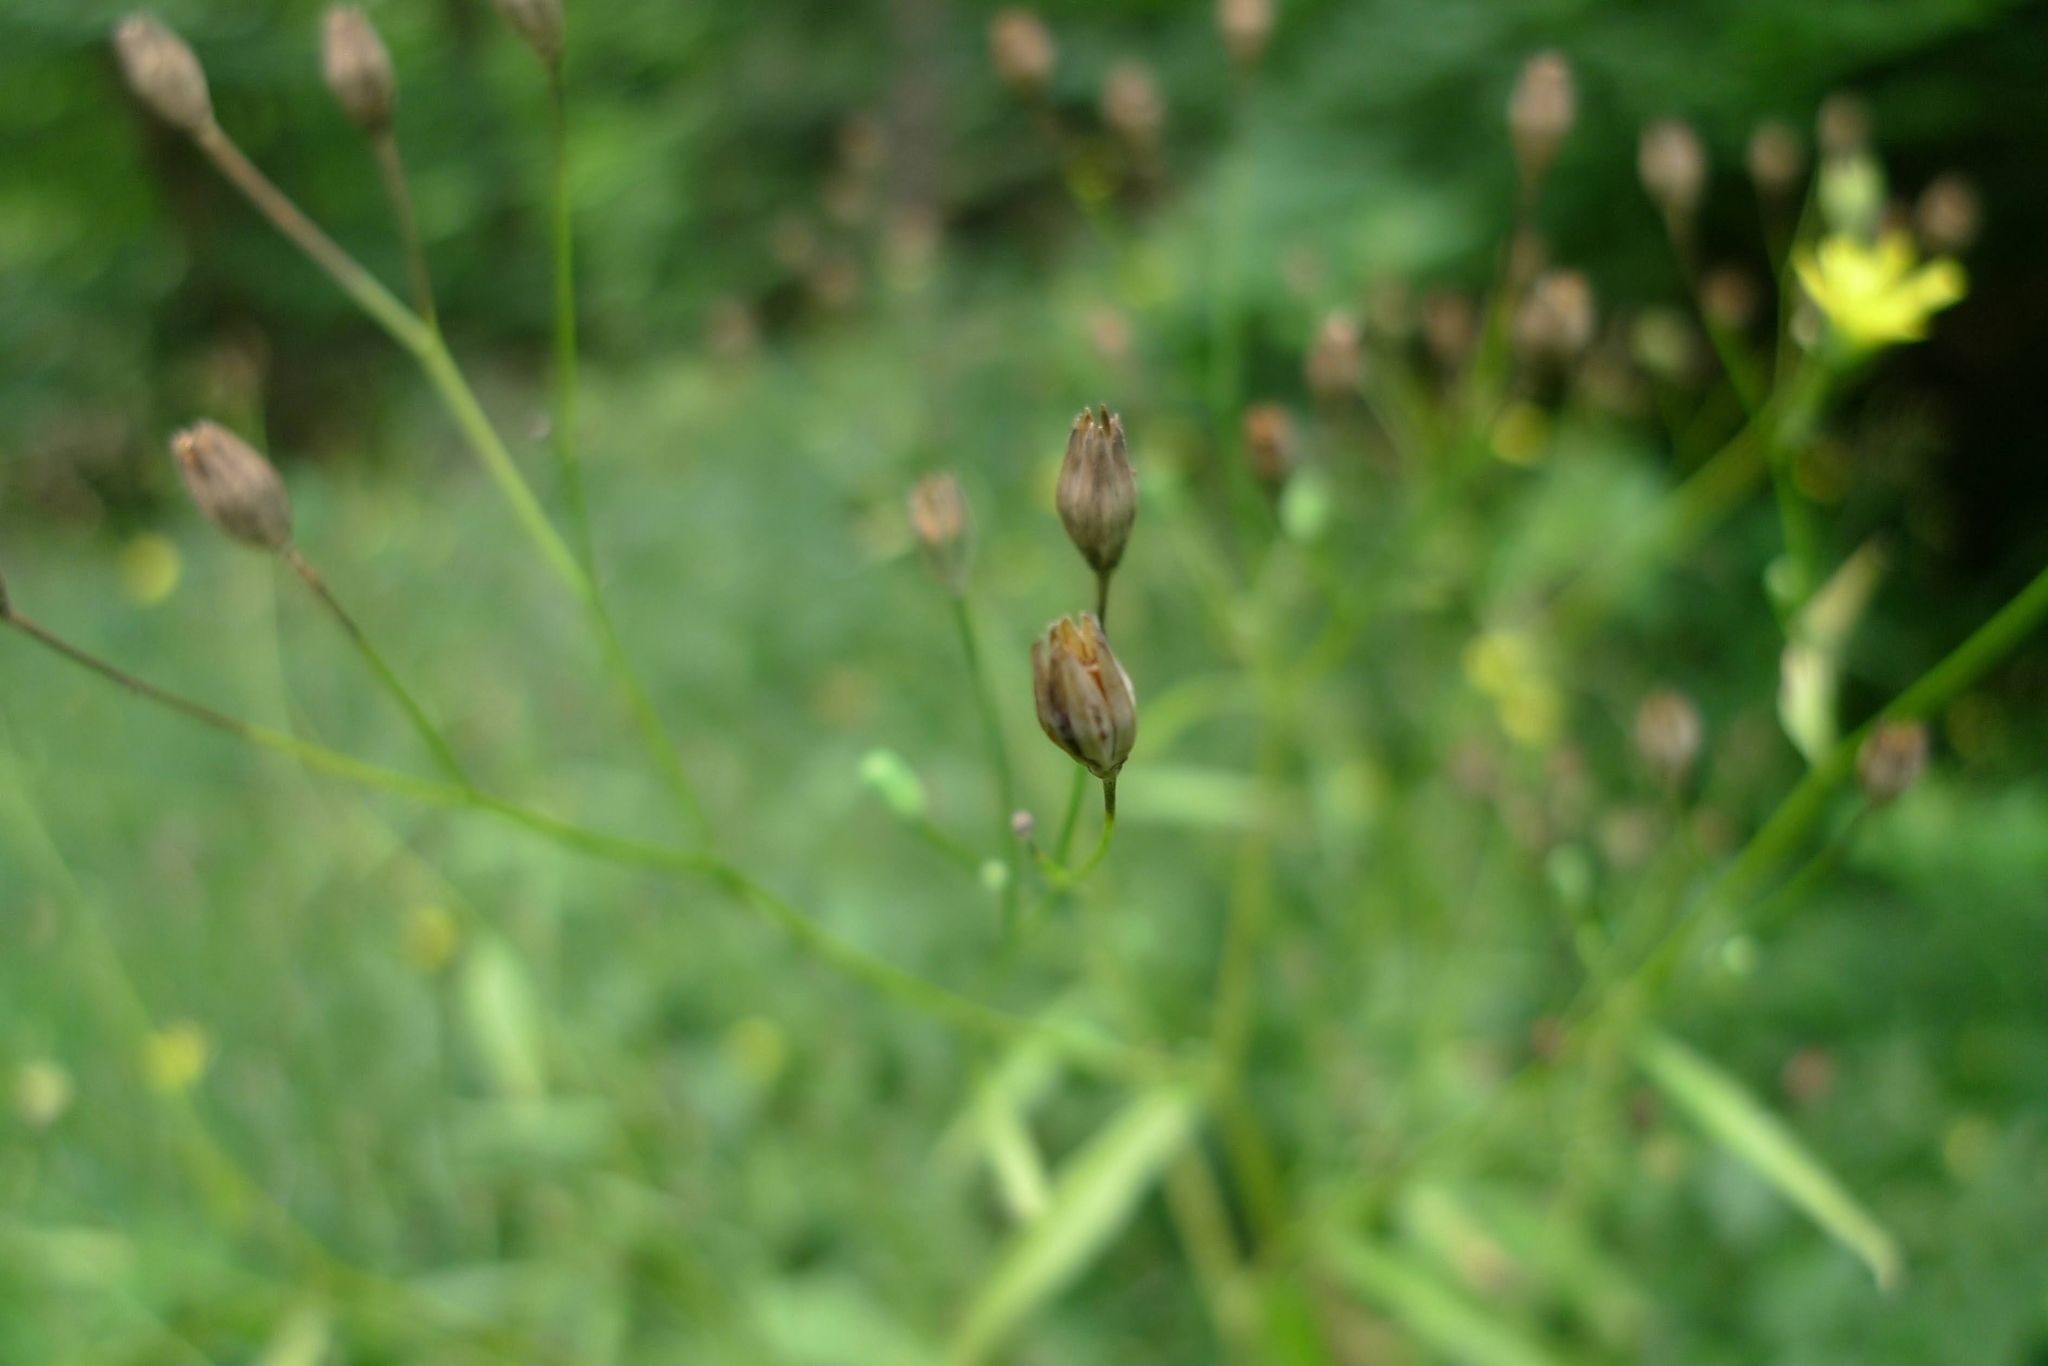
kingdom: Plantae
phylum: Tracheophyta
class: Magnoliopsida
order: Asterales
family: Asteraceae
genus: Lapsana
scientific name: Lapsana communis
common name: Nipplewort
